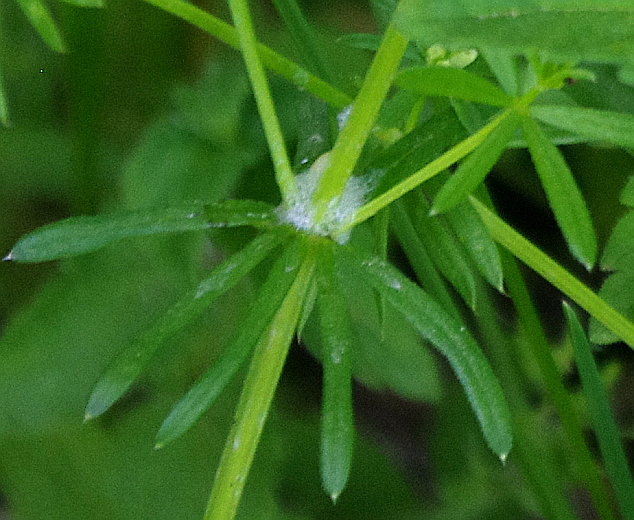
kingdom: Plantae
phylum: Tracheophyta
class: Magnoliopsida
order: Gentianales
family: Rubiaceae
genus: Galium
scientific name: Galium mollugo
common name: Hedge bedstraw
